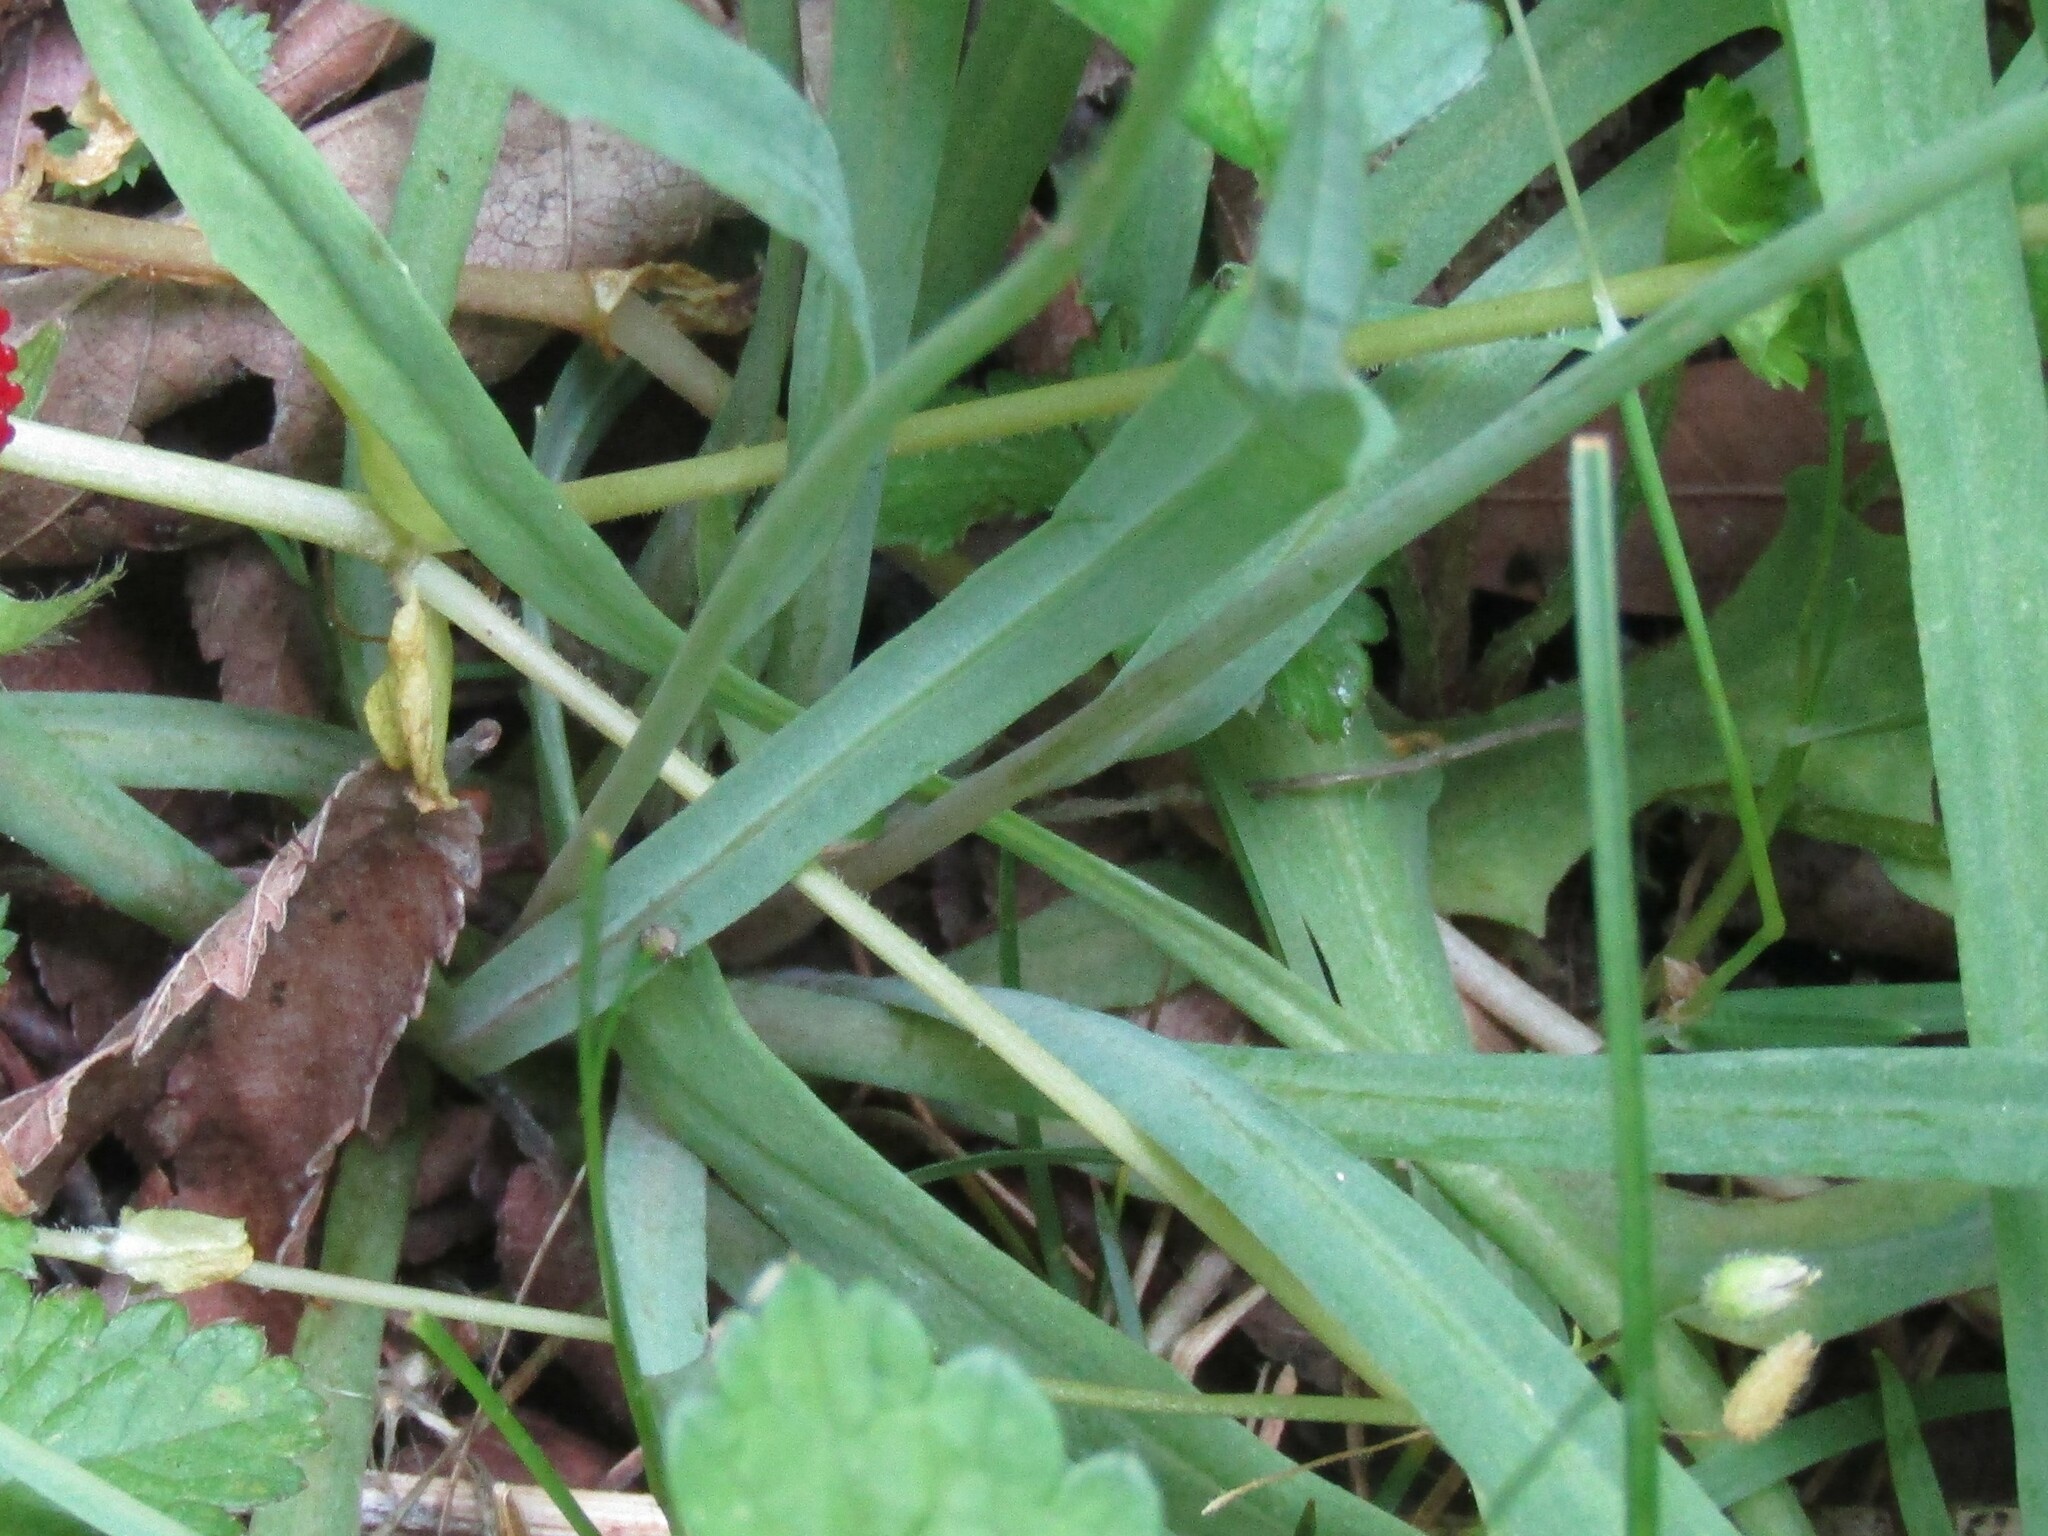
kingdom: Plantae
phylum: Tracheophyta
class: Magnoliopsida
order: Asterales
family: Asteraceae
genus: Krigia
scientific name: Krigia dandelion
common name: Colonial dwarf-dandelion
